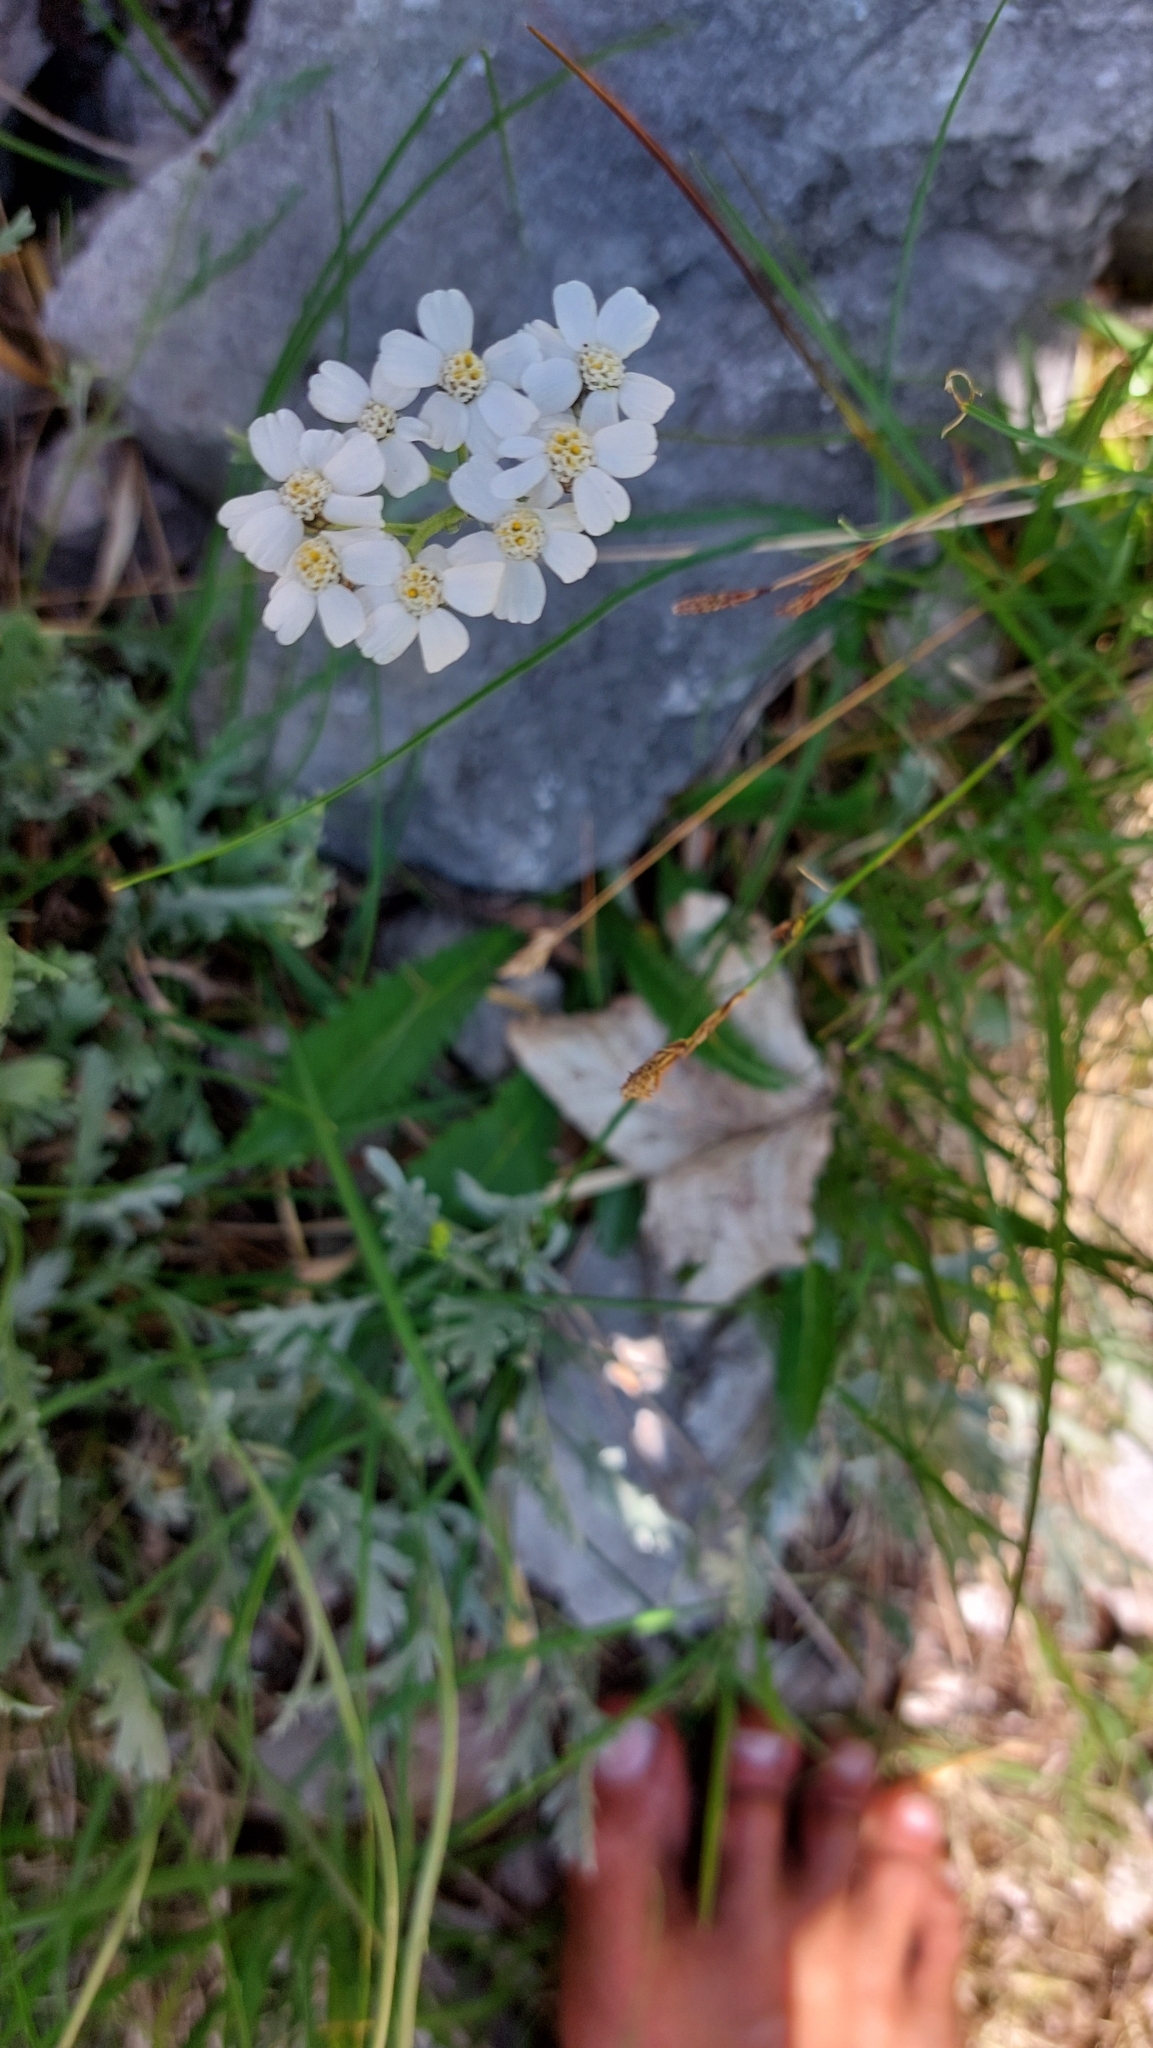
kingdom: Plantae
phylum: Tracheophyta
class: Magnoliopsida
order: Asterales
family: Asteraceae
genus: Achillea
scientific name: Achillea clavennae
